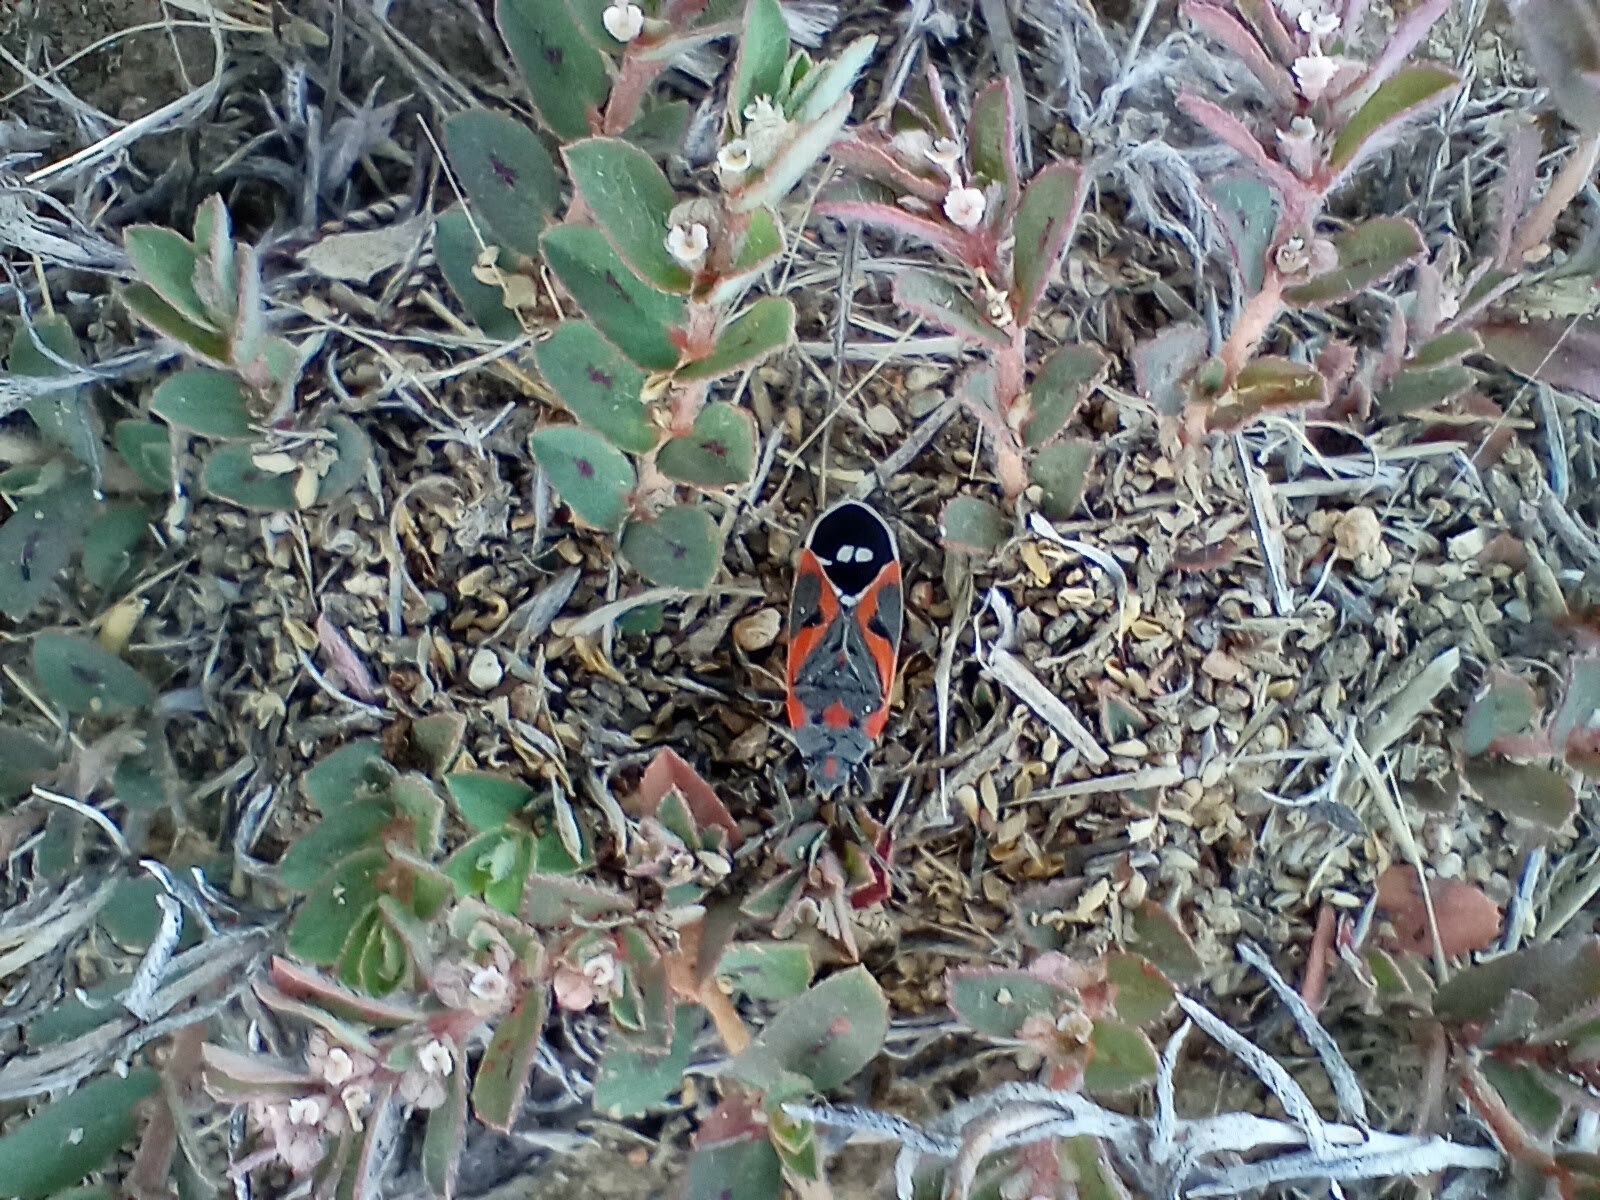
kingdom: Animalia
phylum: Arthropoda
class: Insecta
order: Hemiptera
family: Lygaeidae
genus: Lygaeus
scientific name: Lygaeus kalmii
